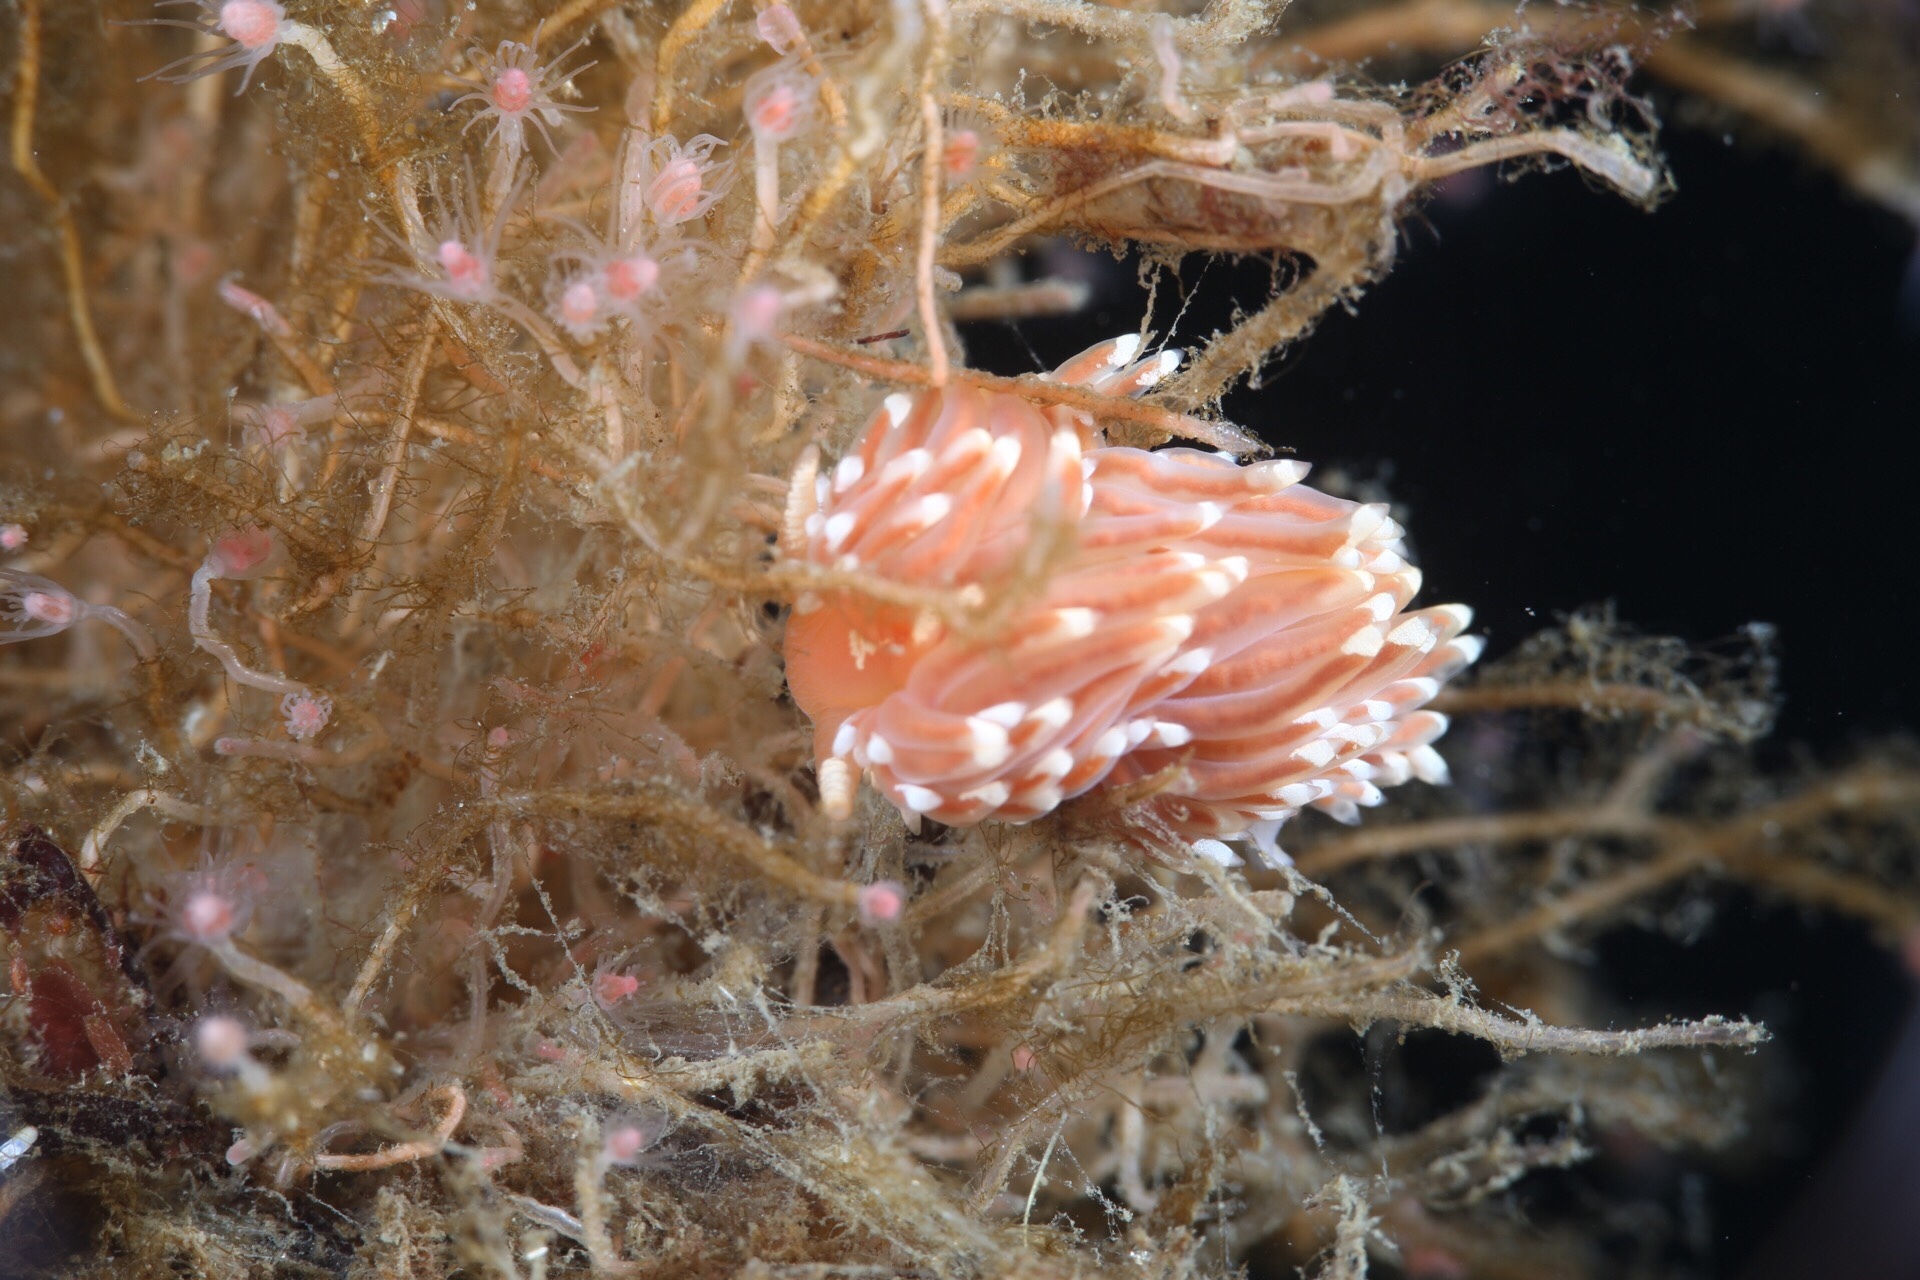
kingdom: Animalia
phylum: Mollusca
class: Gastropoda
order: Nudibranchia
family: Facelinidae
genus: Facelina
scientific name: Facelina bostoniensis
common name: Boston facelina
